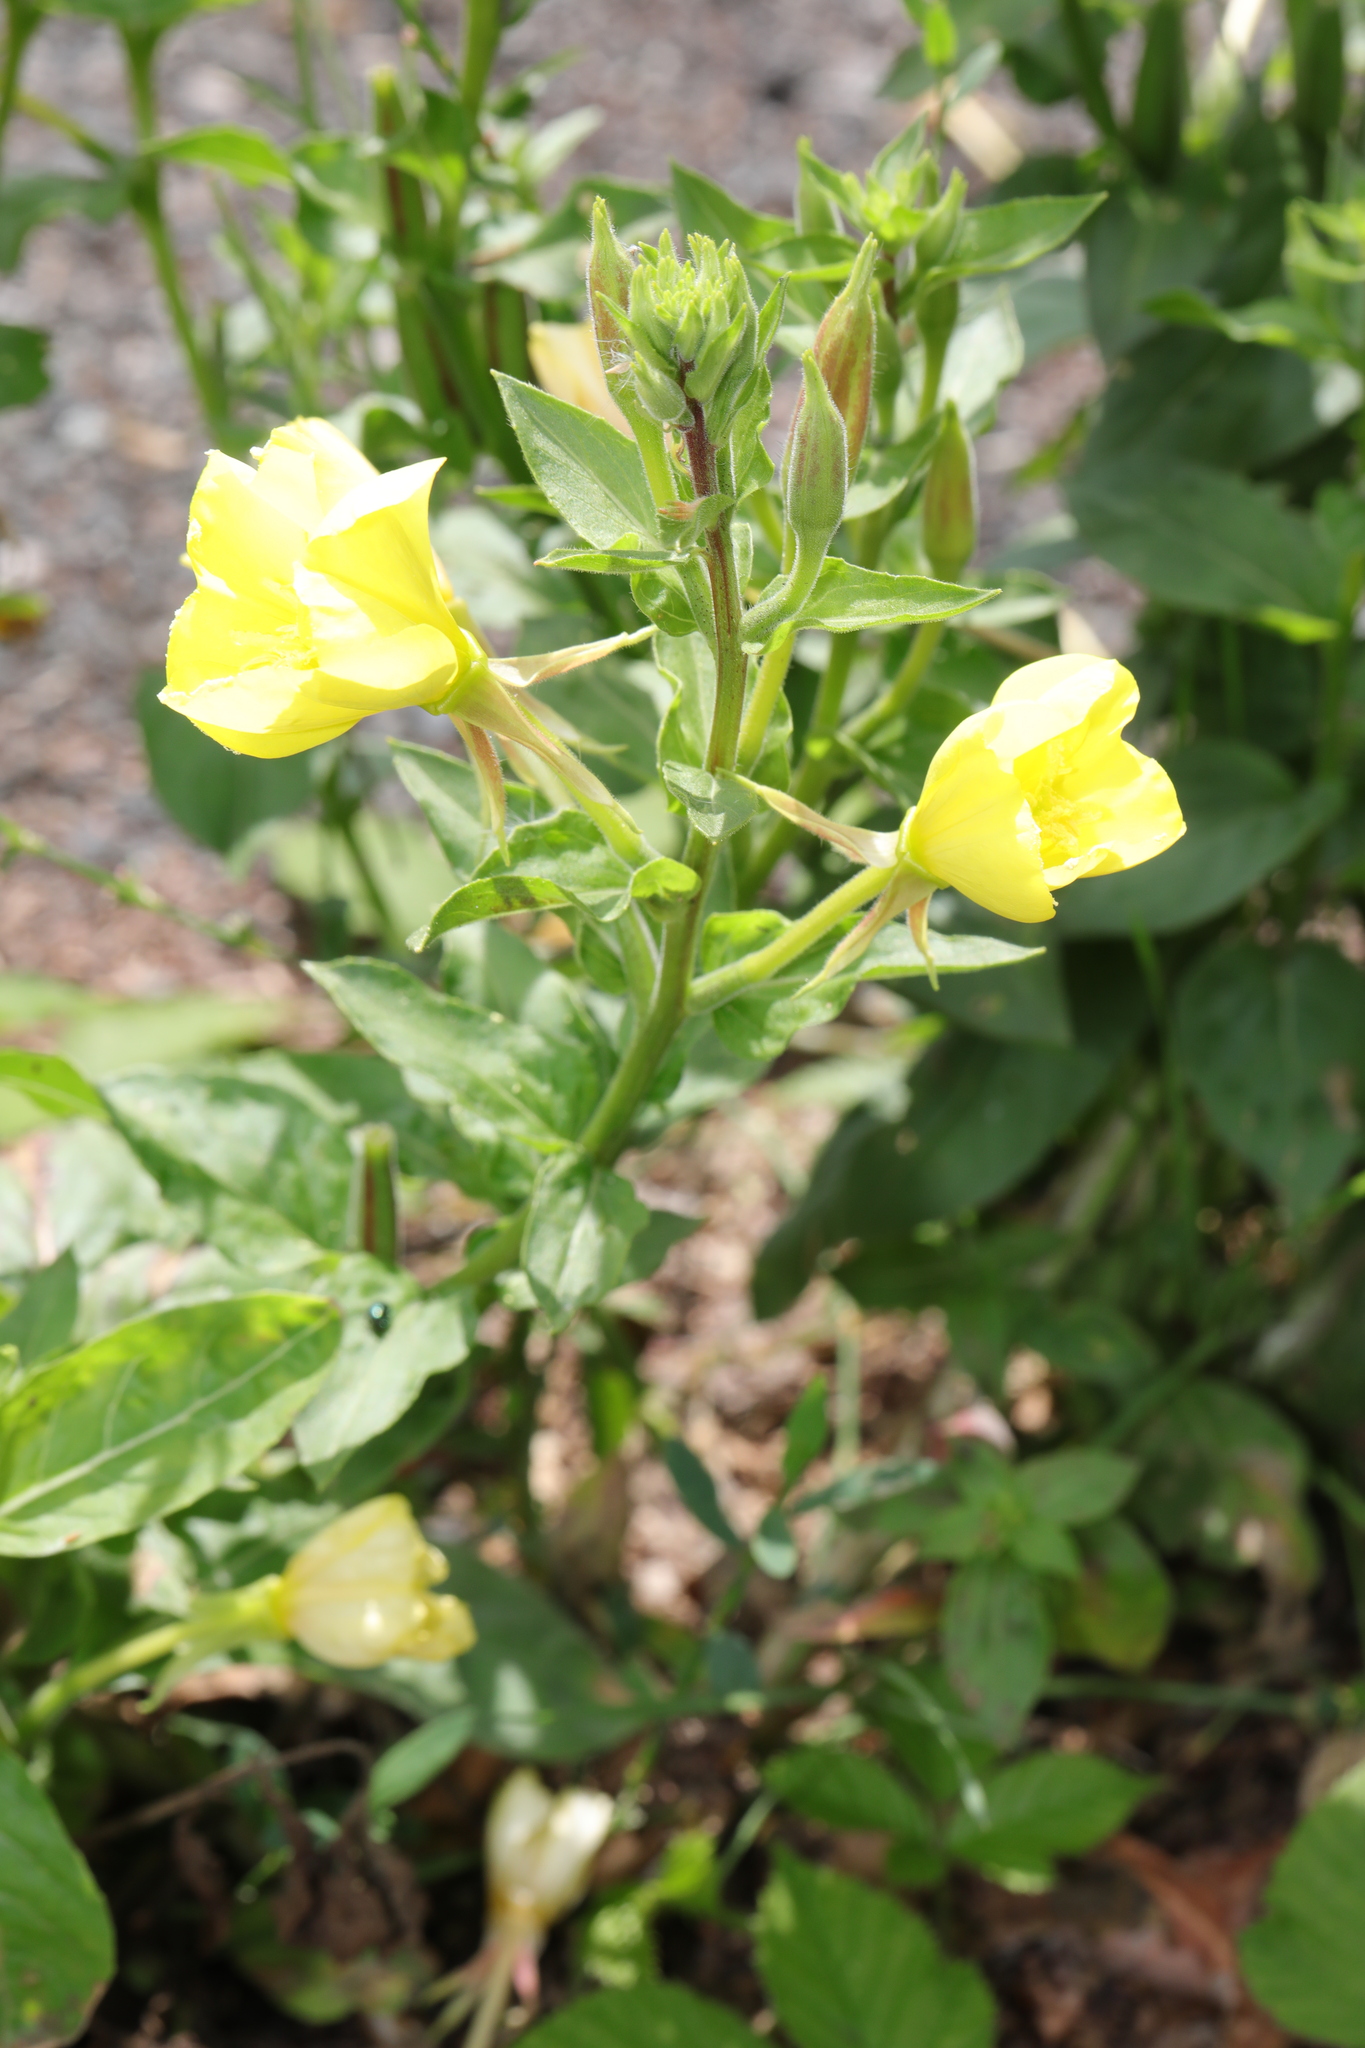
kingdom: Plantae
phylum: Tracheophyta
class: Magnoliopsida
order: Myrtales
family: Onagraceae
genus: Oenothera
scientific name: Oenothera fallax
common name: Intermediate evening-primrose
